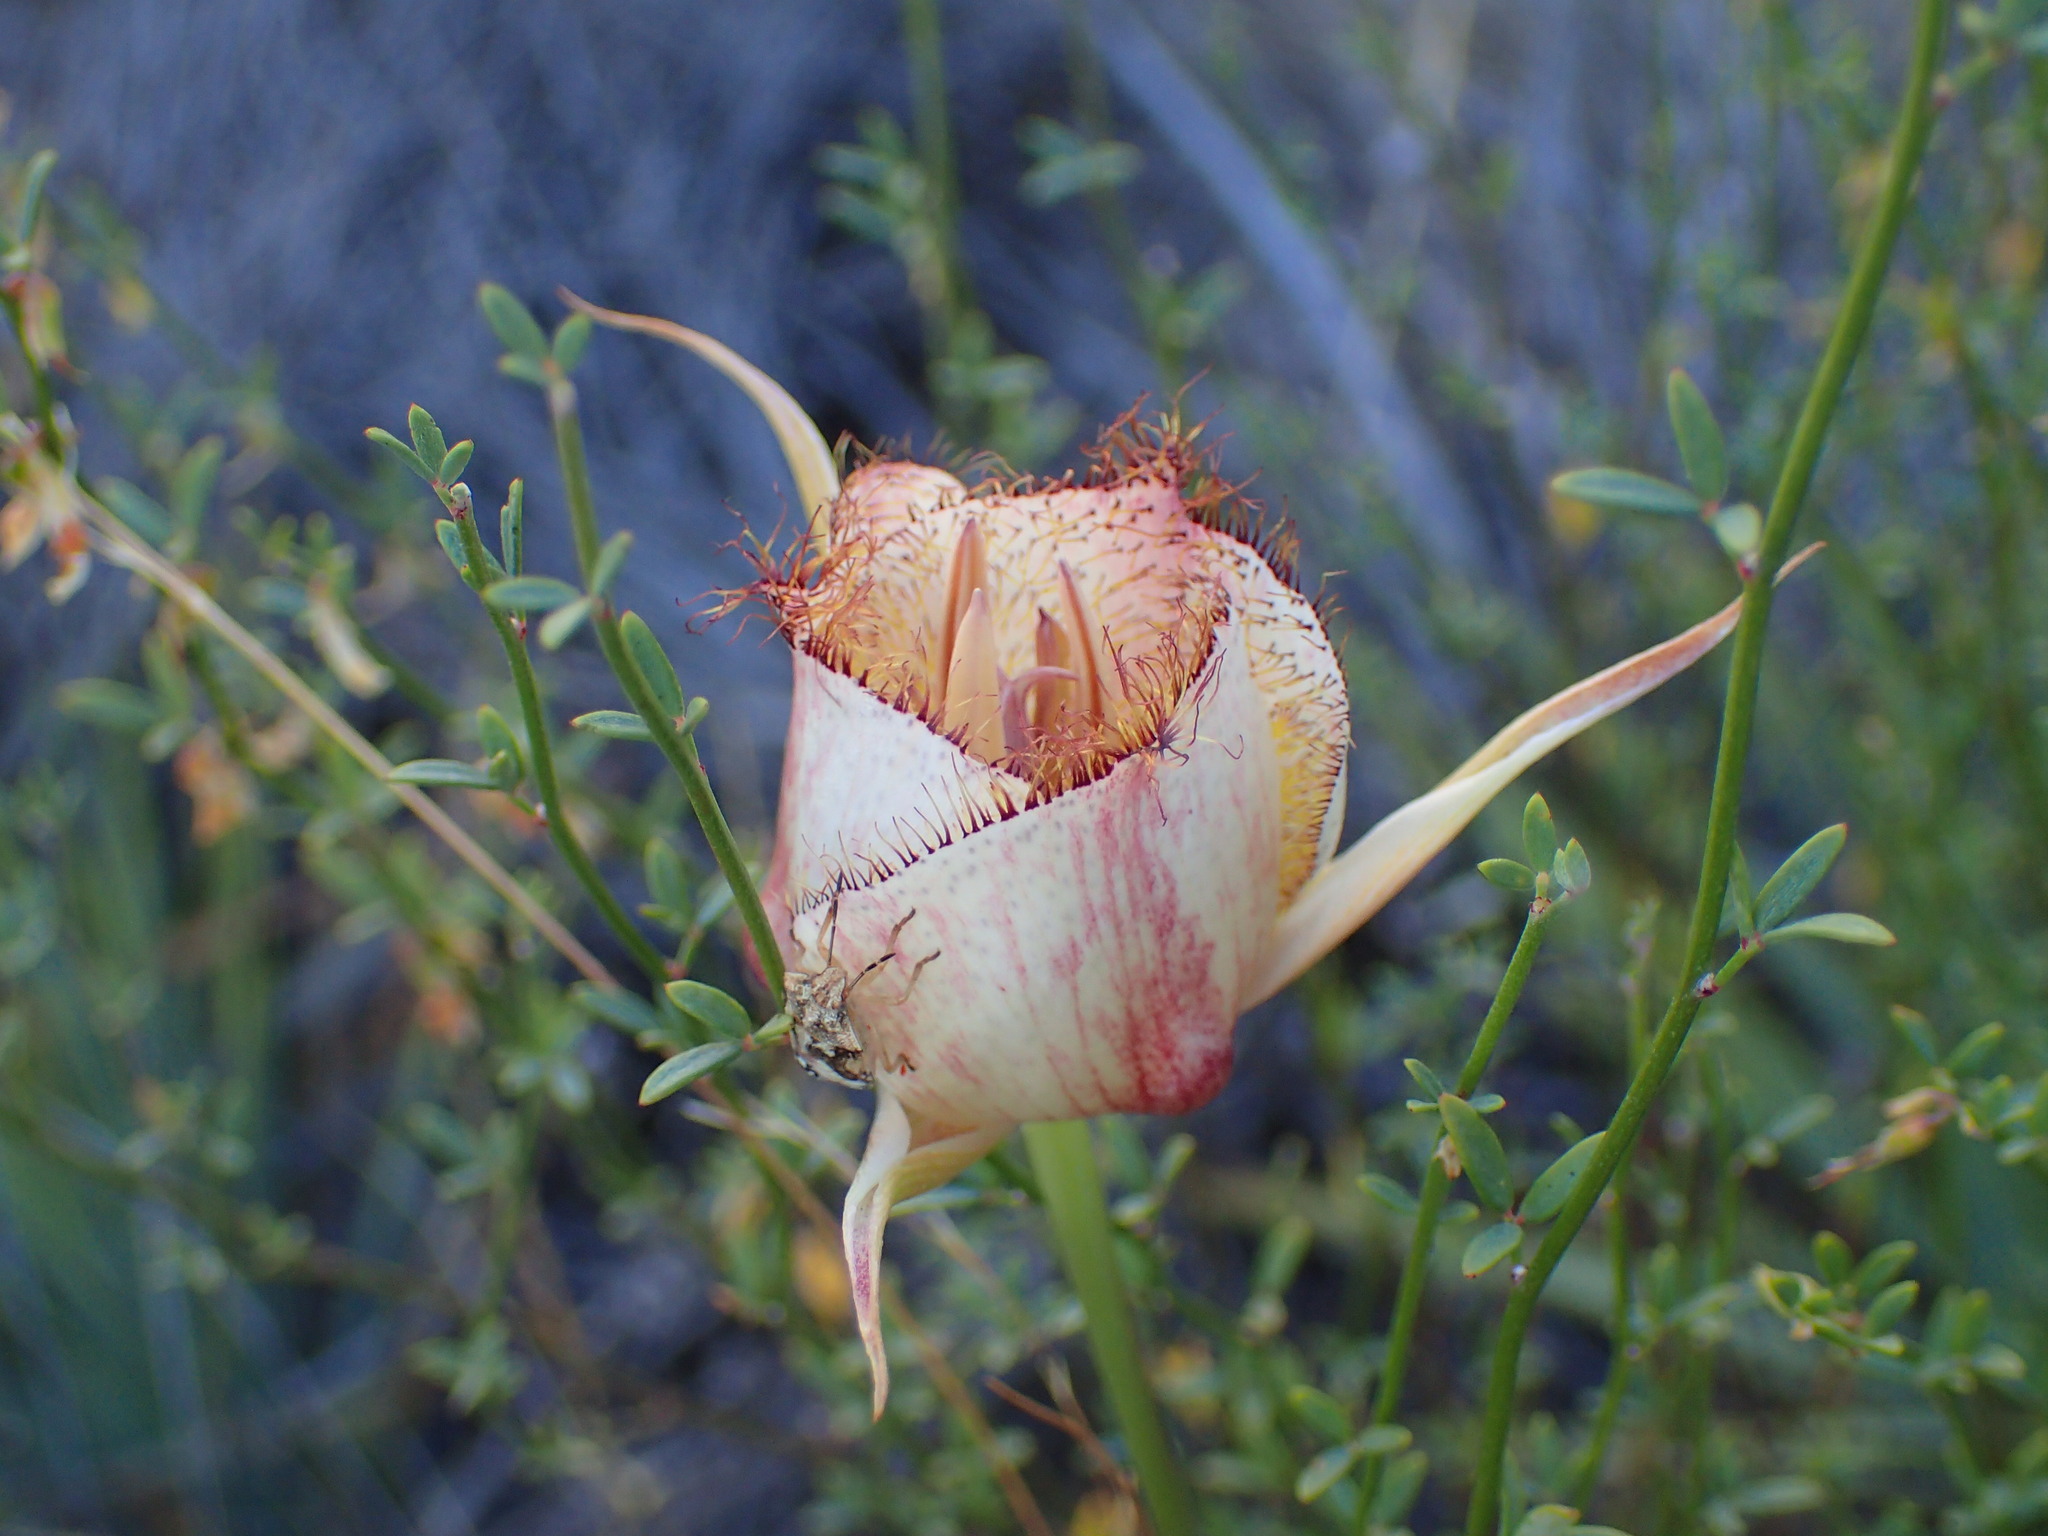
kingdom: Plantae
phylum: Tracheophyta
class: Liliopsida
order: Liliales
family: Liliaceae
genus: Calochortus
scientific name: Calochortus fimbriatus
